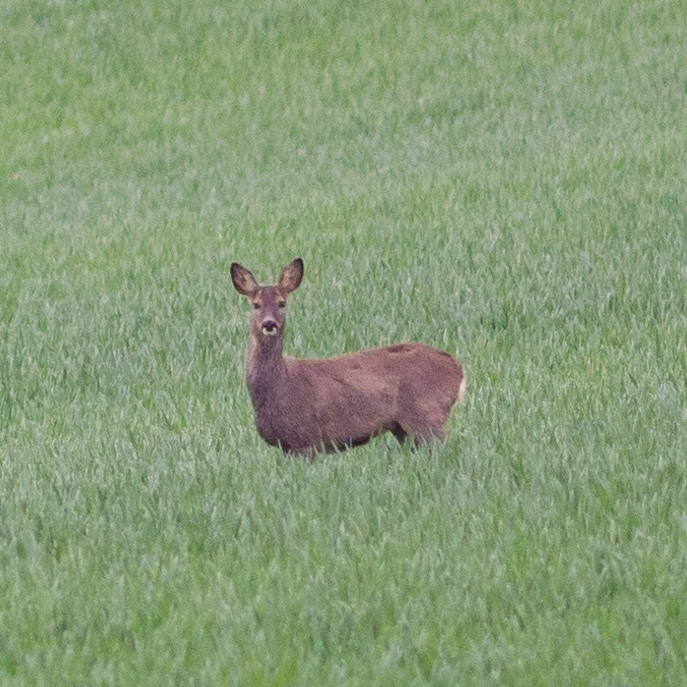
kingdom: Animalia
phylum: Chordata
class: Mammalia
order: Artiodactyla
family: Cervidae
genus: Capreolus
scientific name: Capreolus capreolus
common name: Western roe deer
